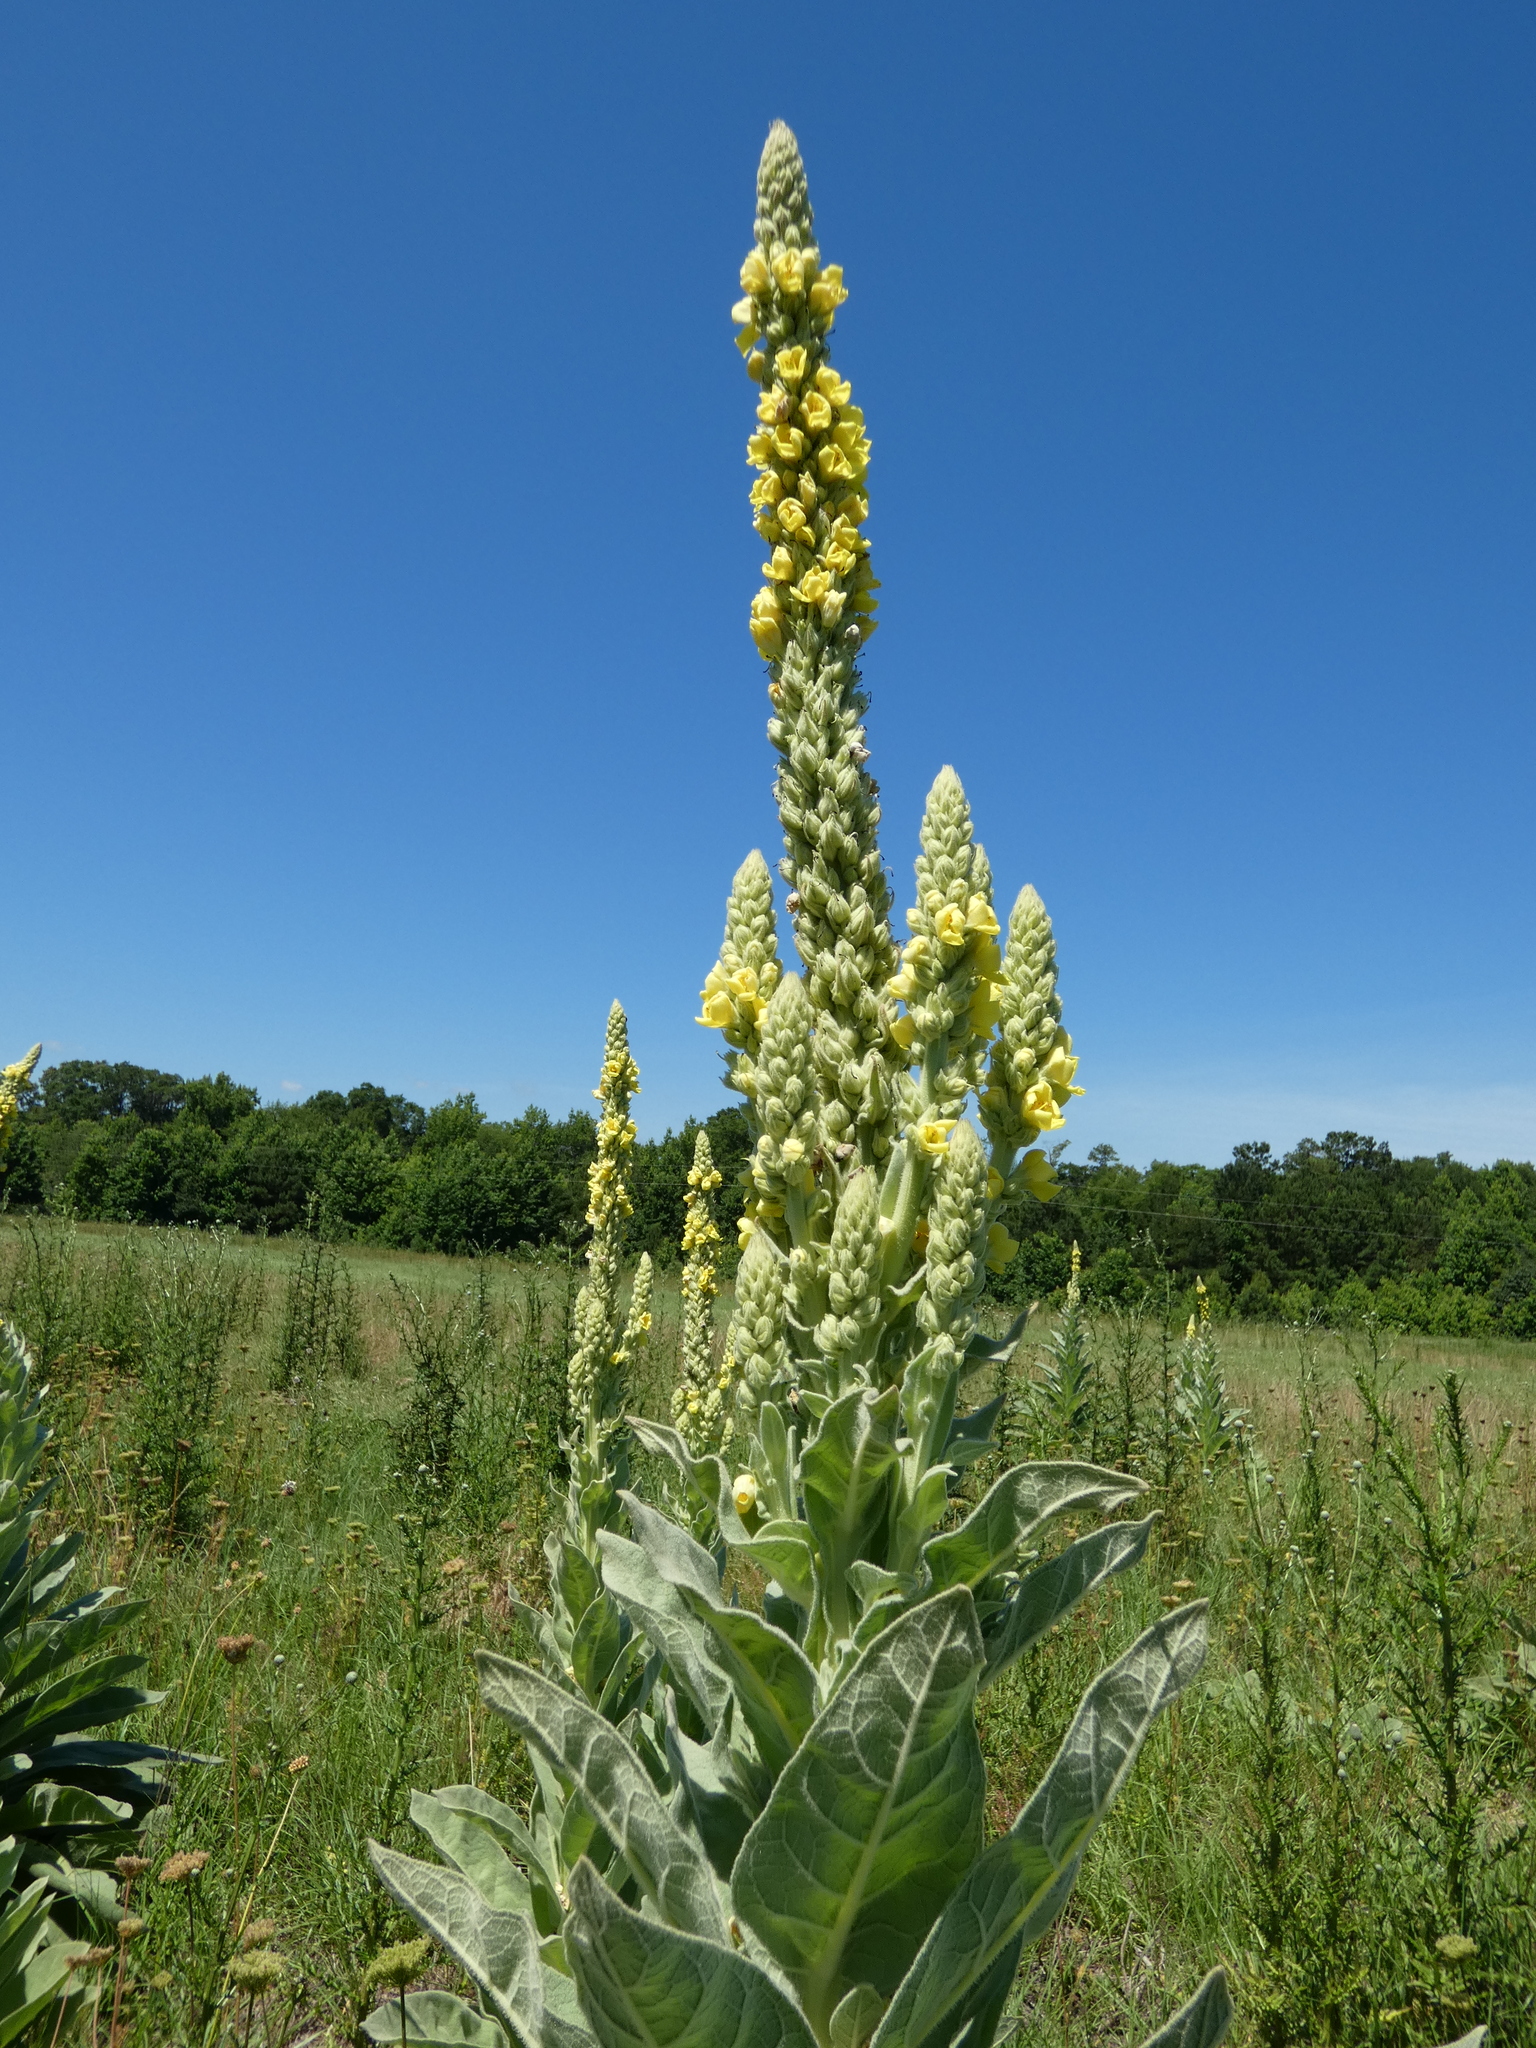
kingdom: Plantae
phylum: Tracheophyta
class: Magnoliopsida
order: Lamiales
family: Scrophulariaceae
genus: Verbascum
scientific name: Verbascum thapsus
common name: Common mullein
